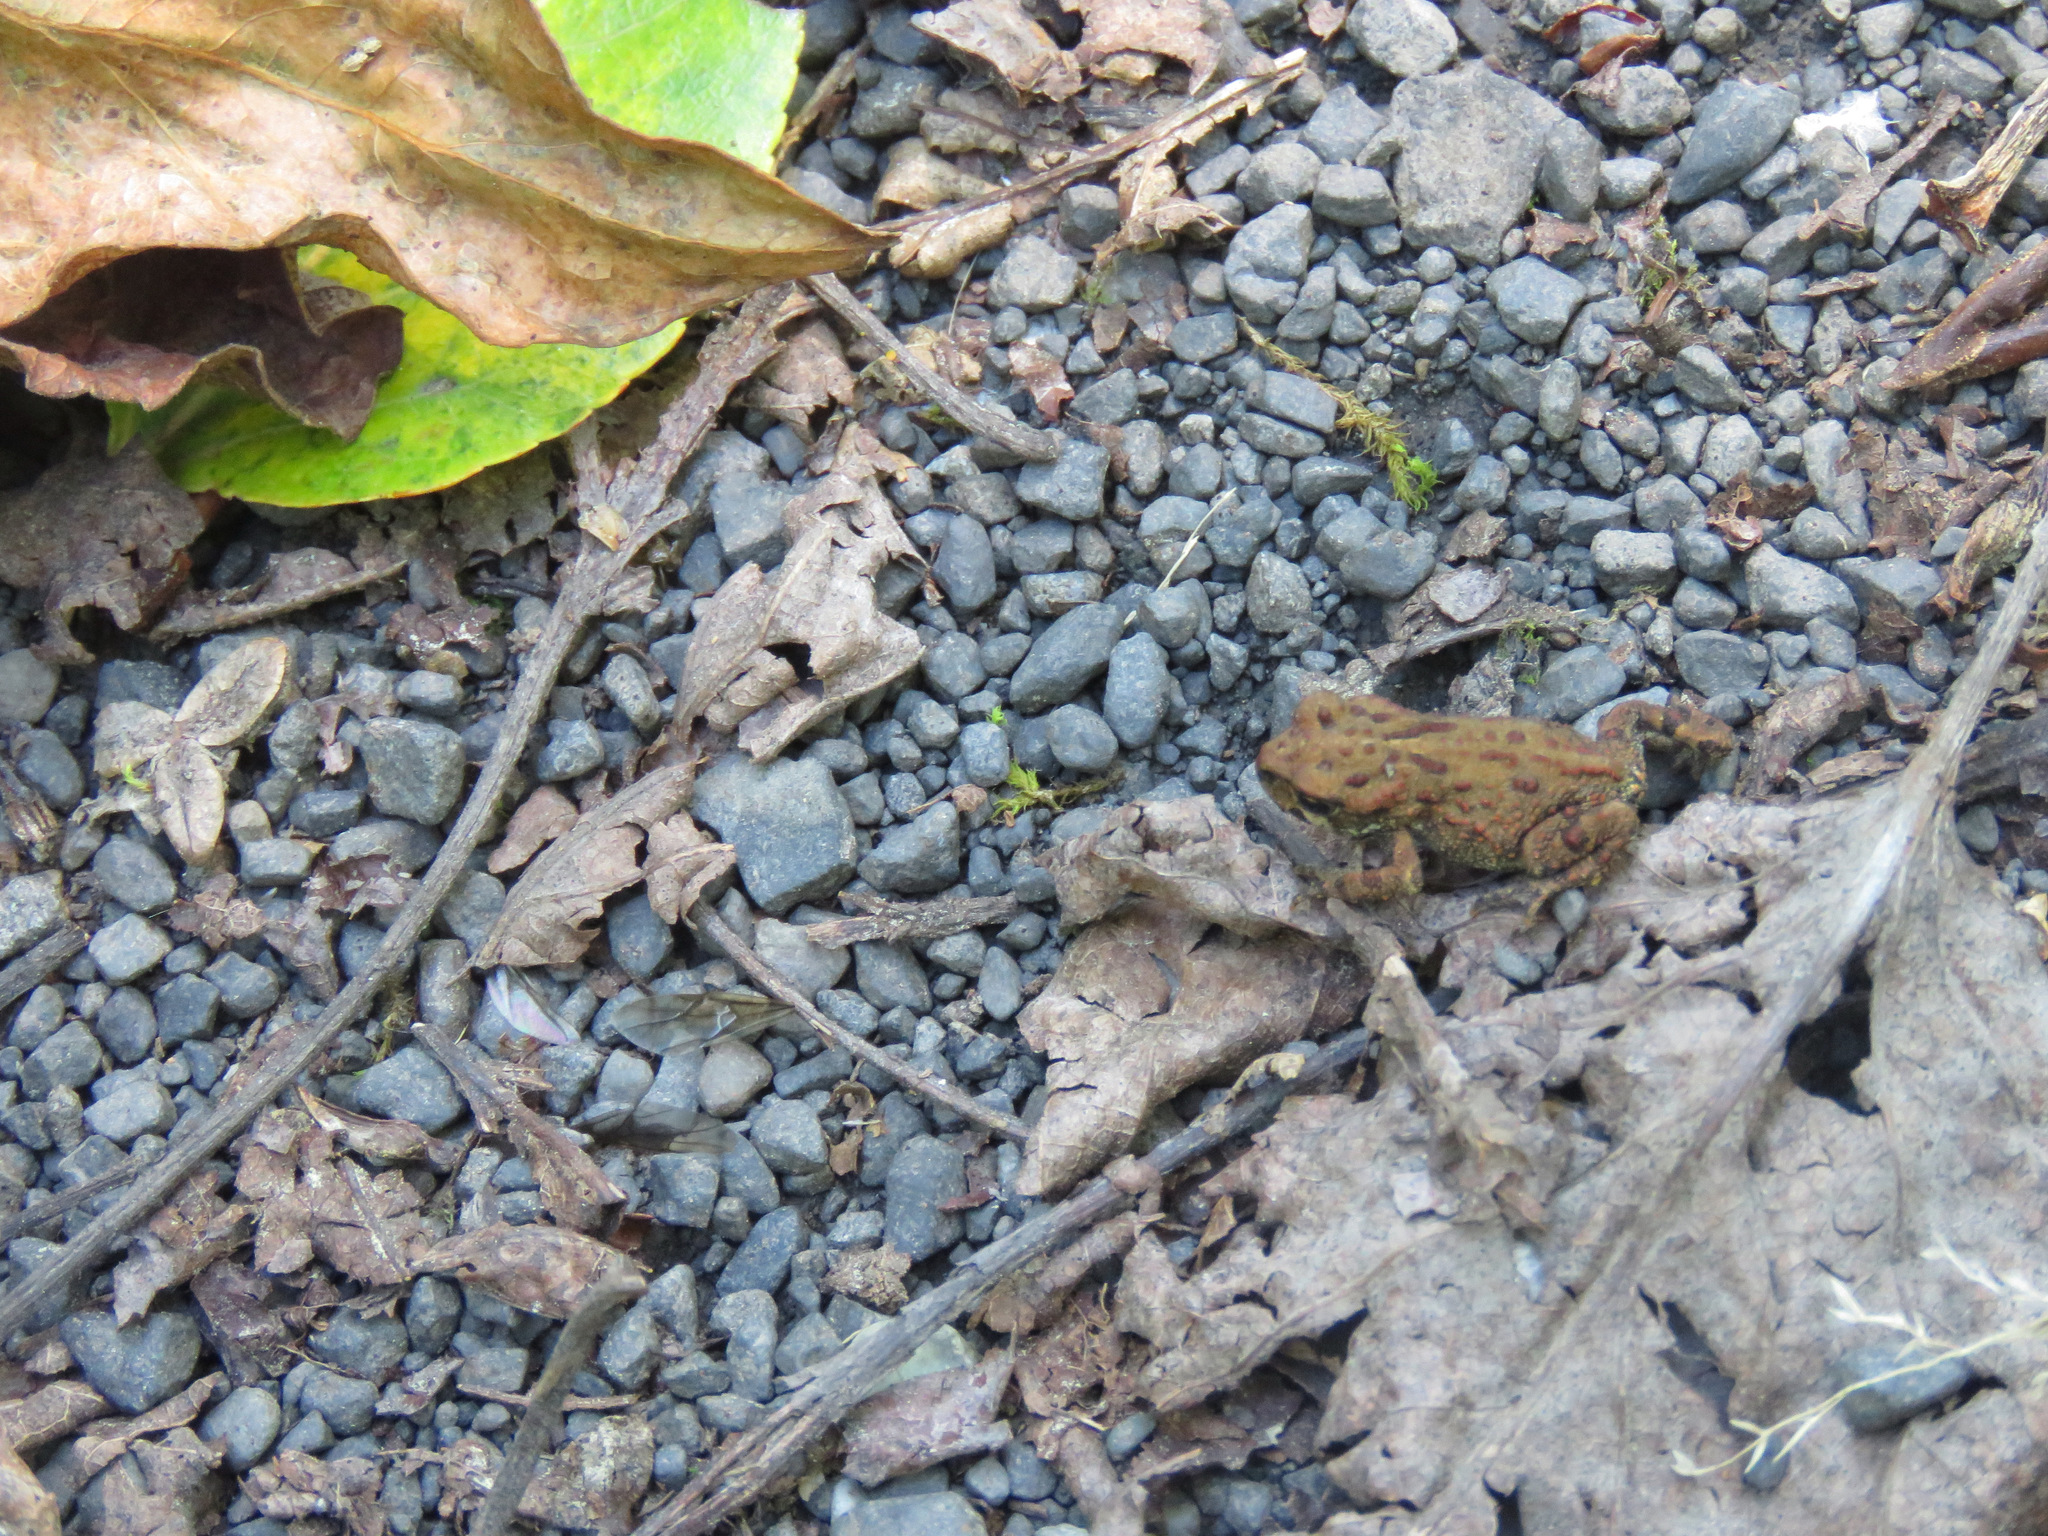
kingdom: Animalia
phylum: Chordata
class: Amphibia
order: Anura
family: Bufonidae
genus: Anaxyrus
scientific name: Anaxyrus boreas
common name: Western toad
